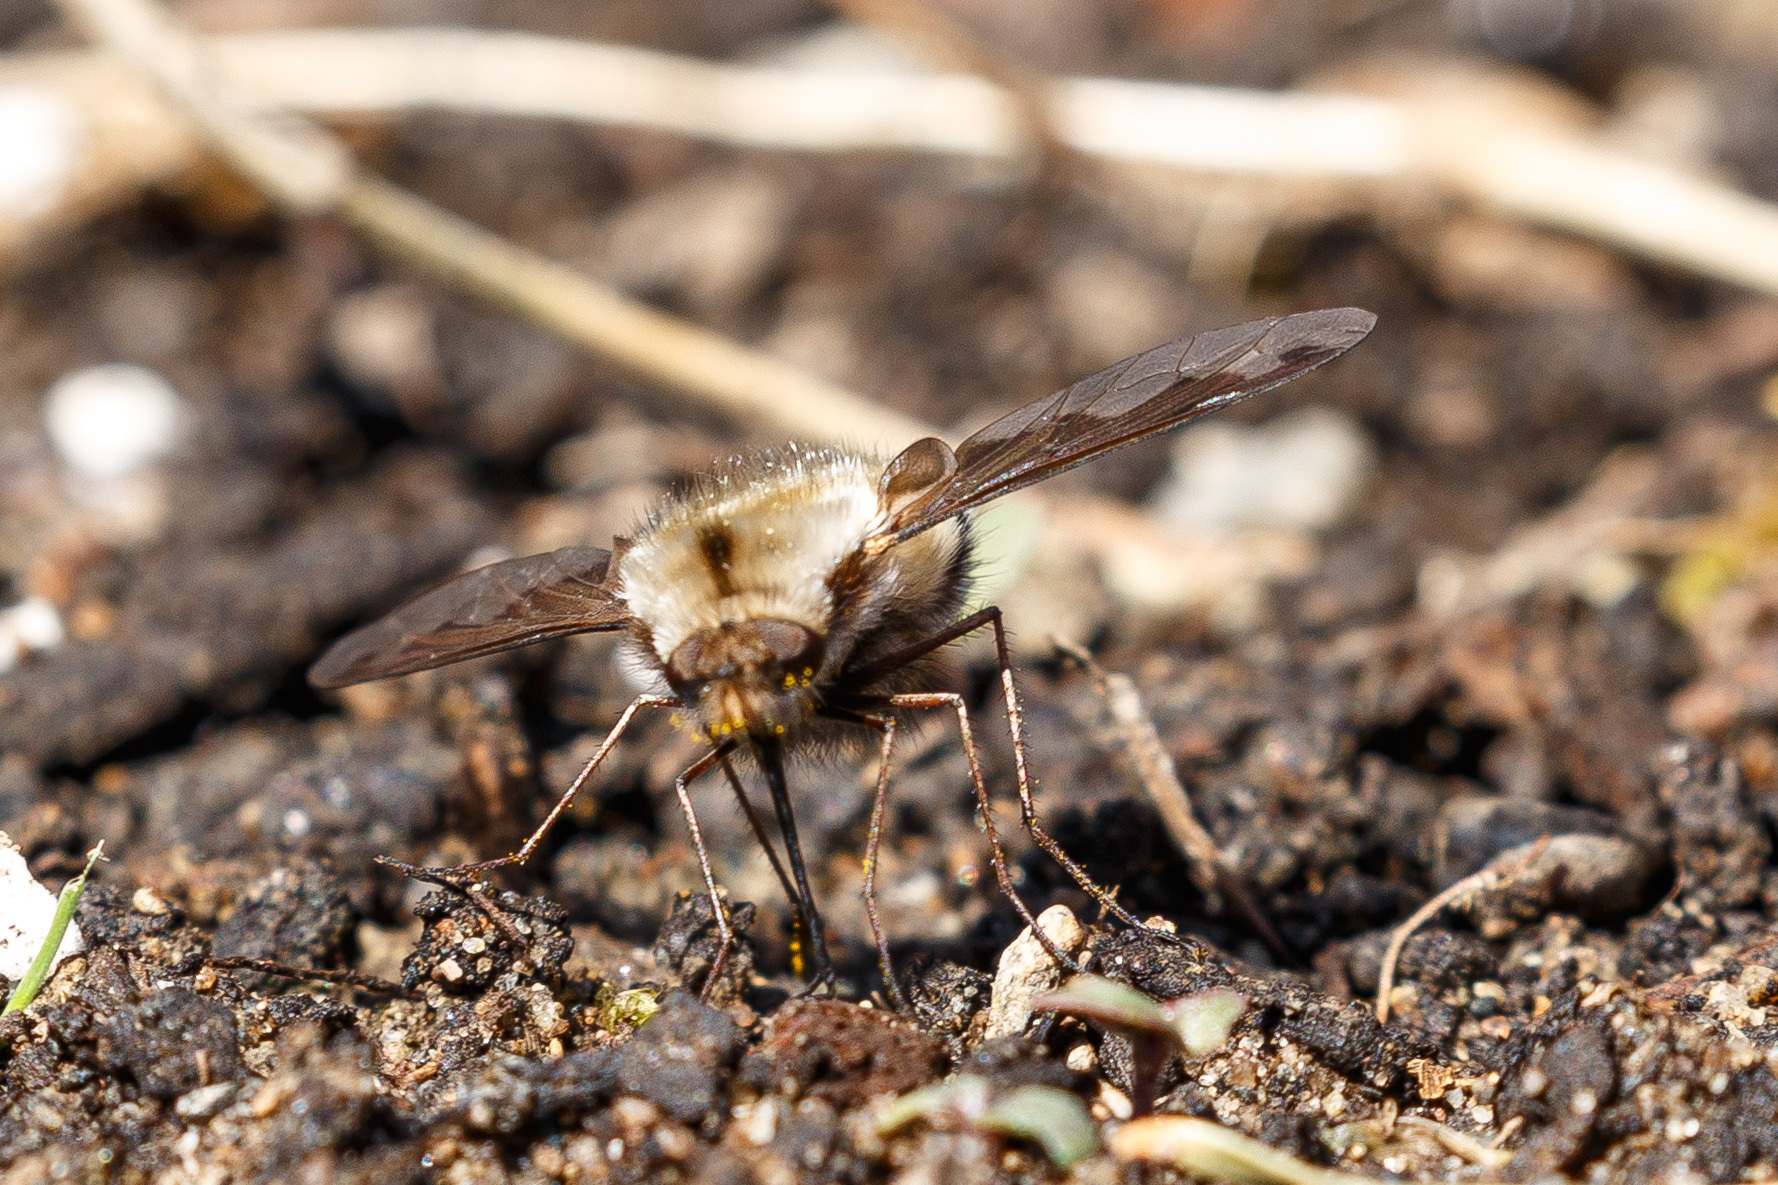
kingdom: Animalia
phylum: Arthropoda
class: Insecta
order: Diptera
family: Bombyliidae
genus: Bombylius
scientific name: Bombylius major
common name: Bee fly
